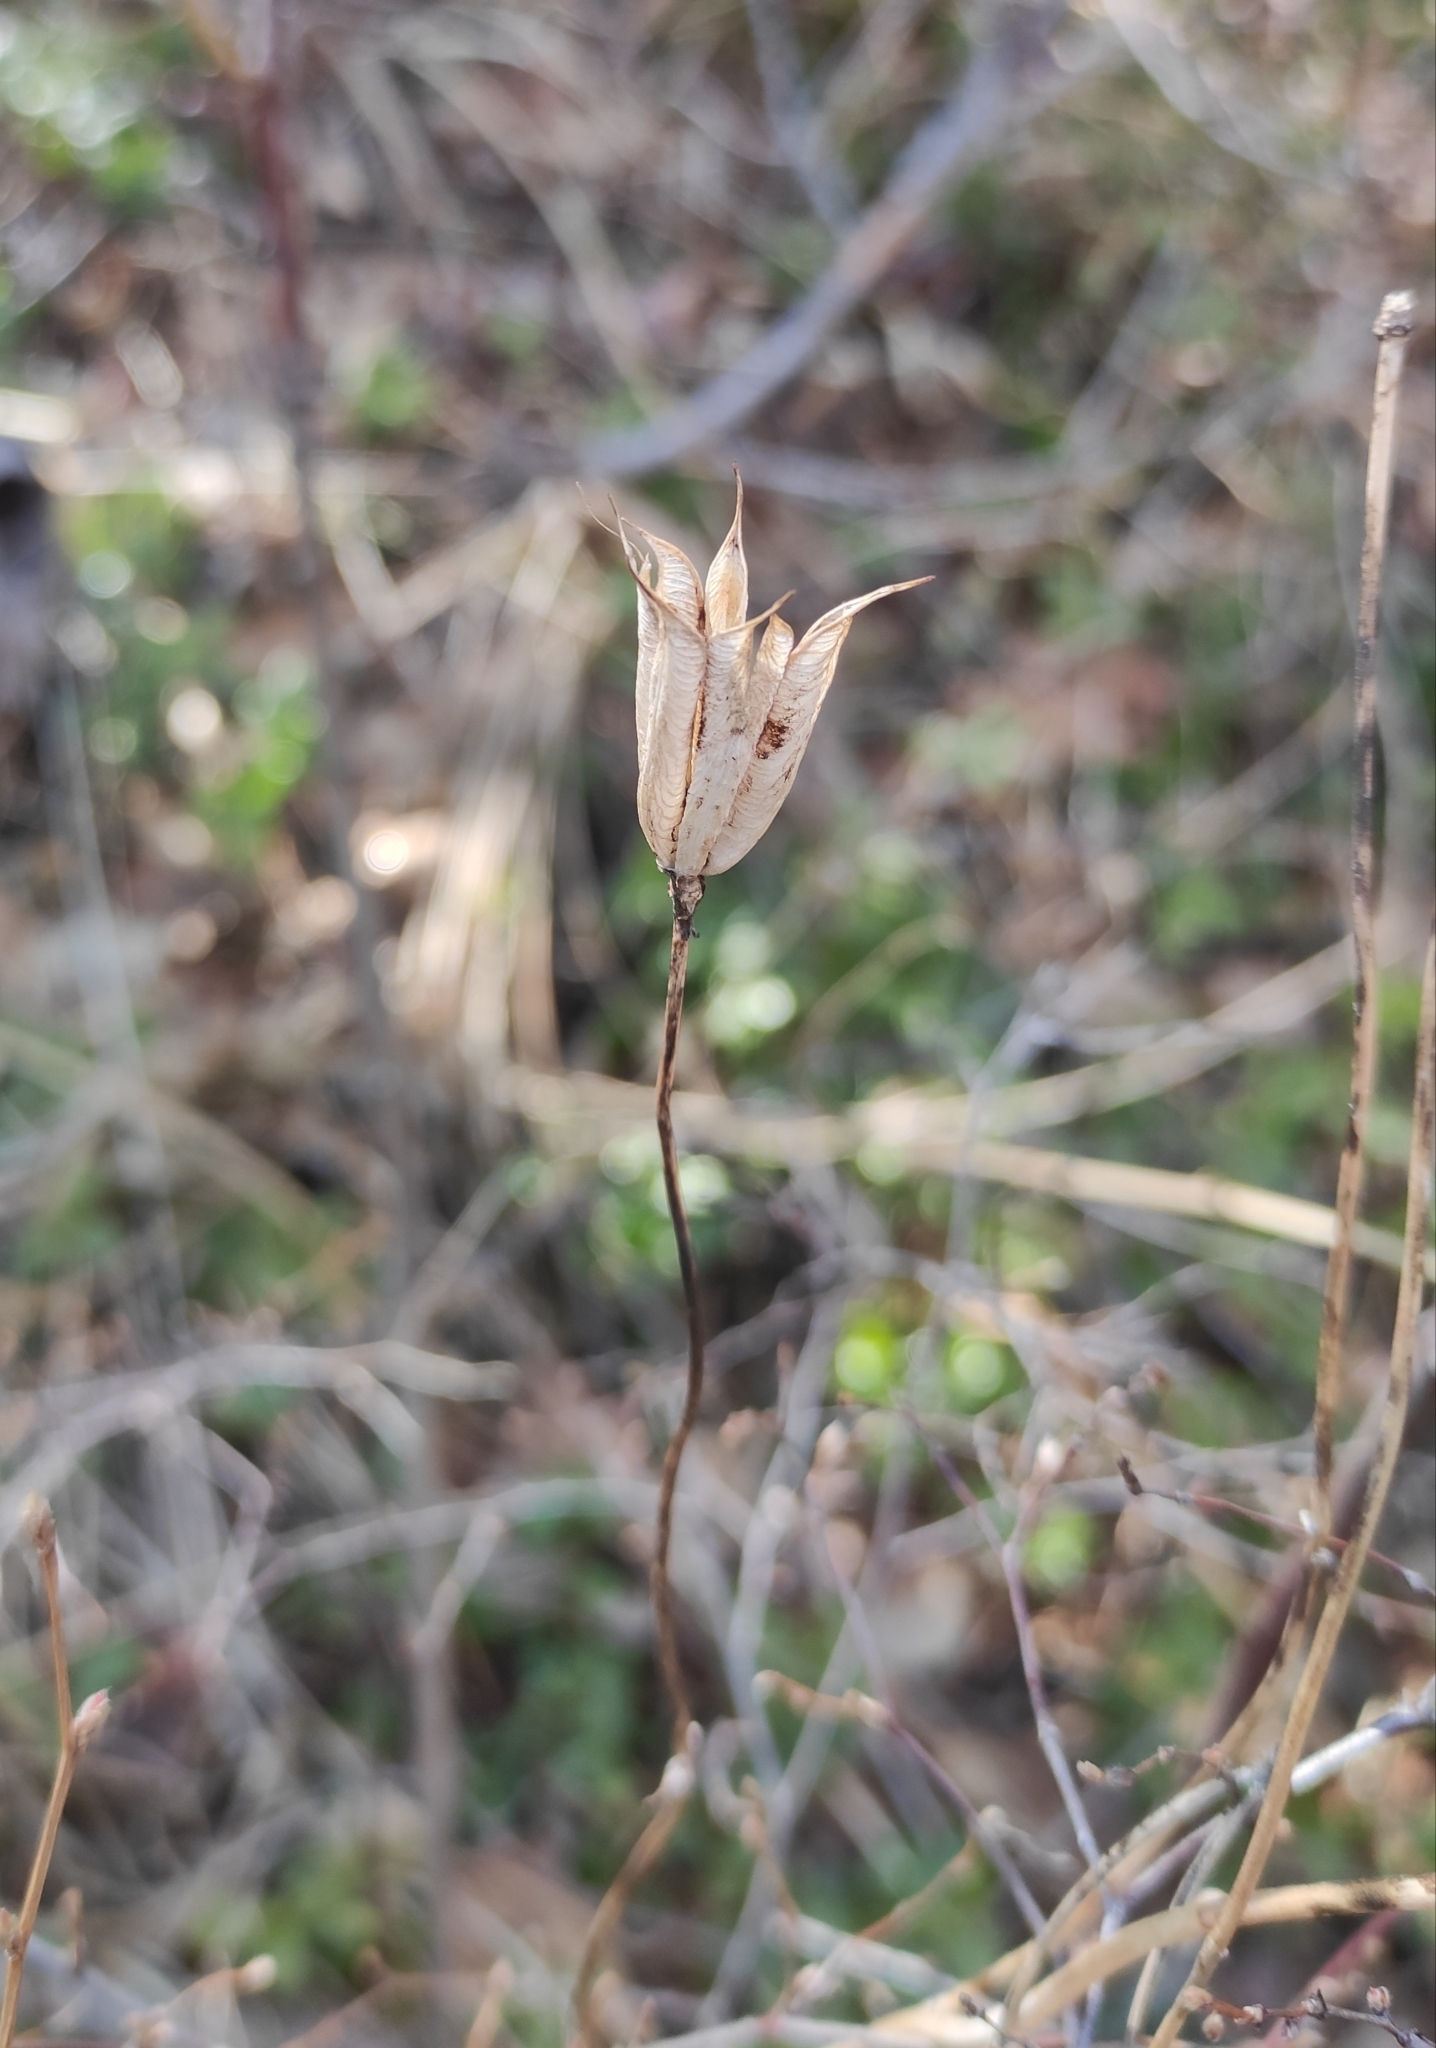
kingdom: Plantae
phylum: Tracheophyta
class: Magnoliopsida
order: Ranunculales
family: Ranunculaceae
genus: Aquilegia
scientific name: Aquilegia sibirica
